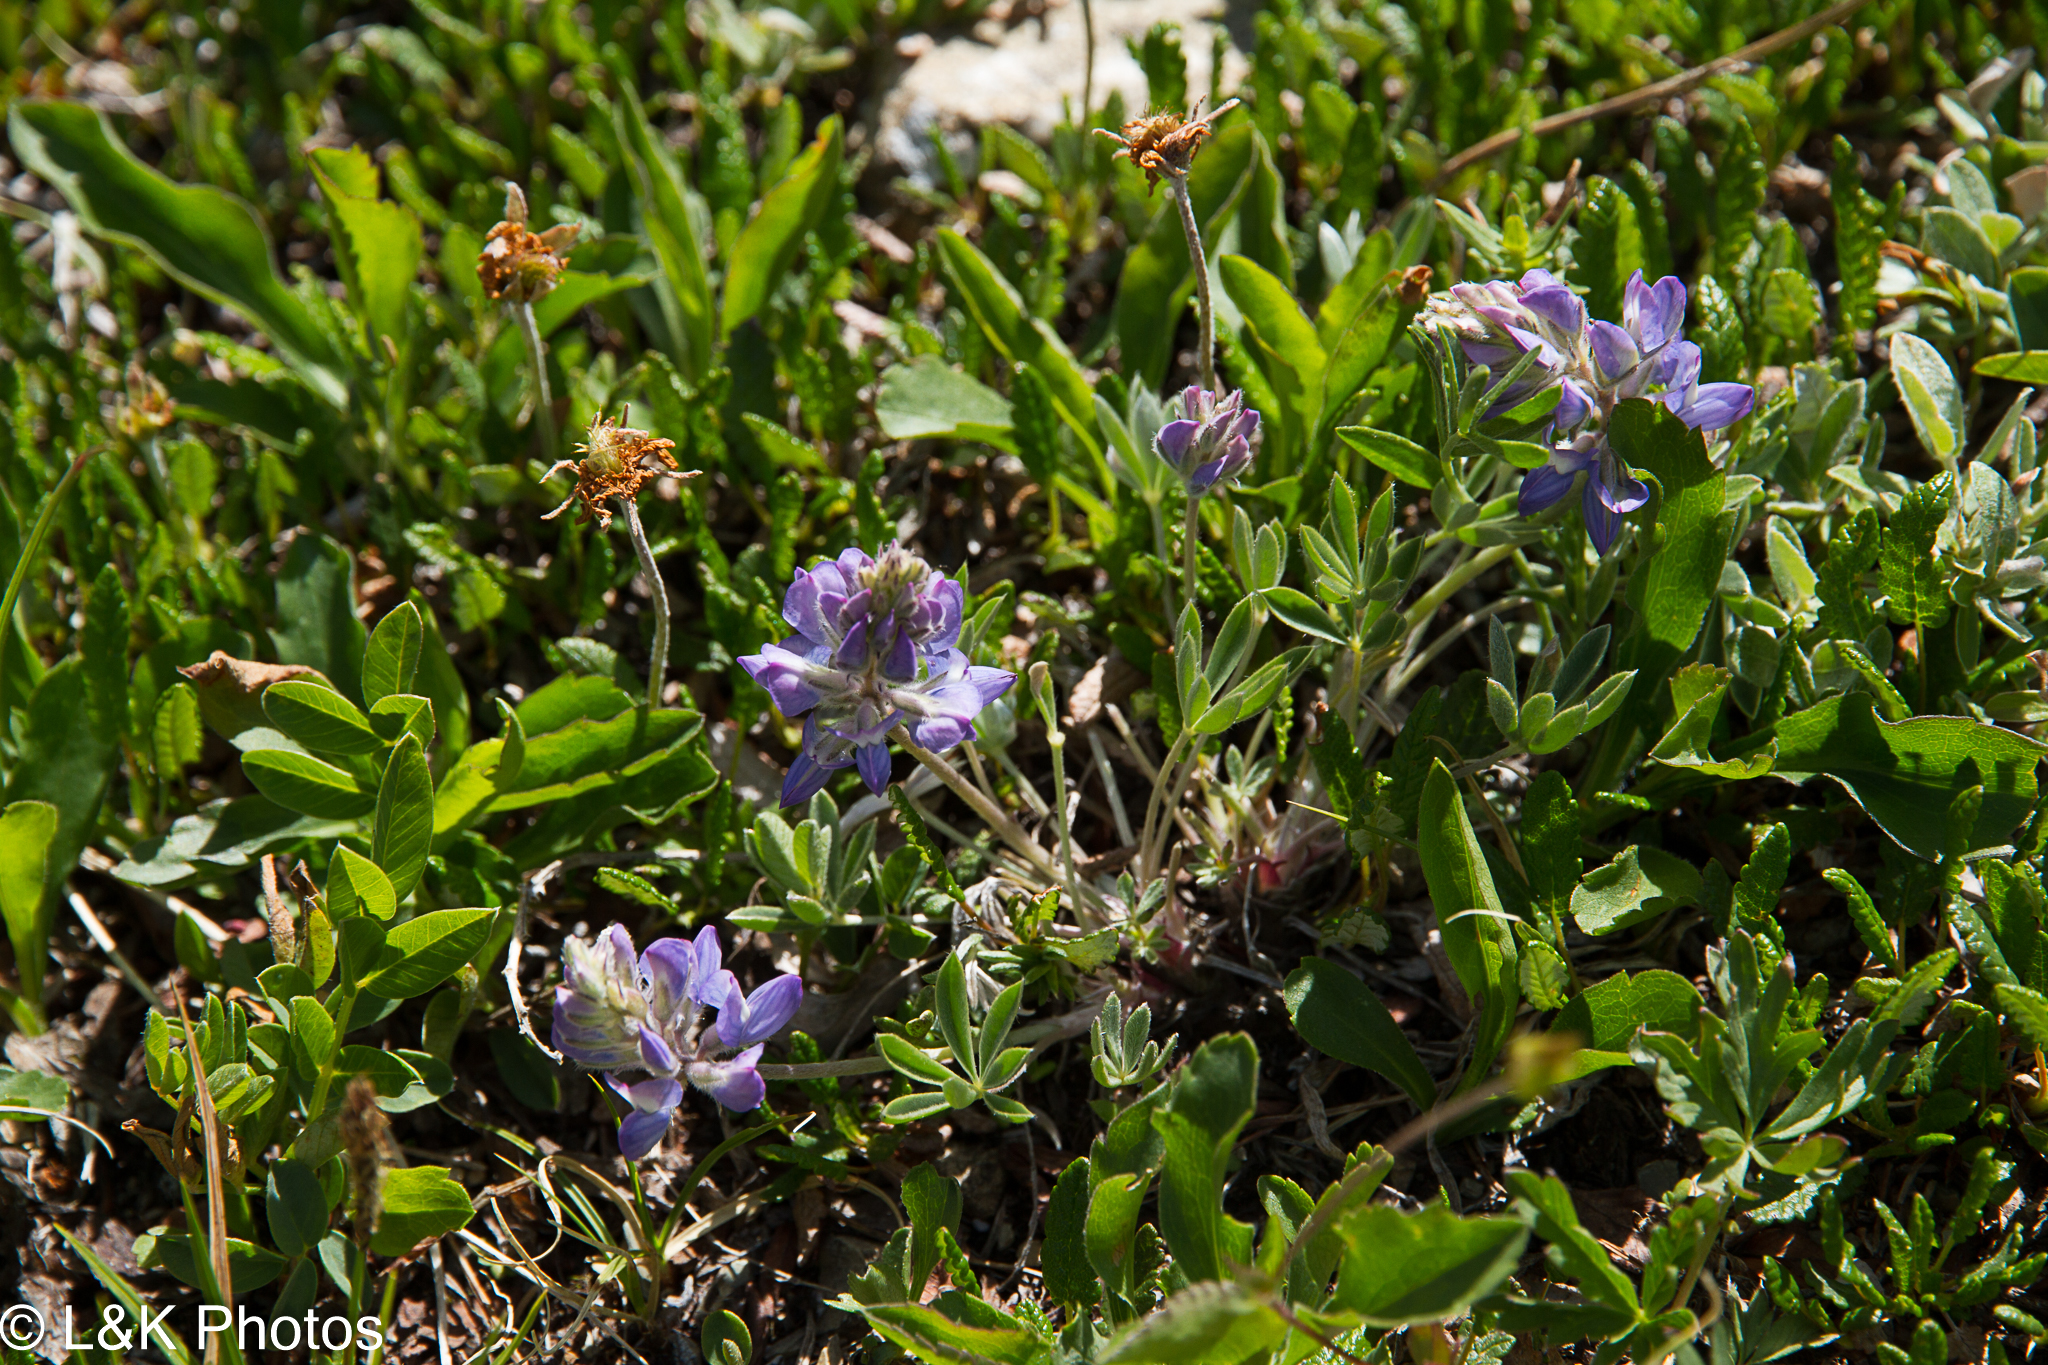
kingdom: Plantae
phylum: Tracheophyta
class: Magnoliopsida
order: Fabales
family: Fabaceae
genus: Lupinus
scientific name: Lupinus lepidus
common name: Prairie lupine
